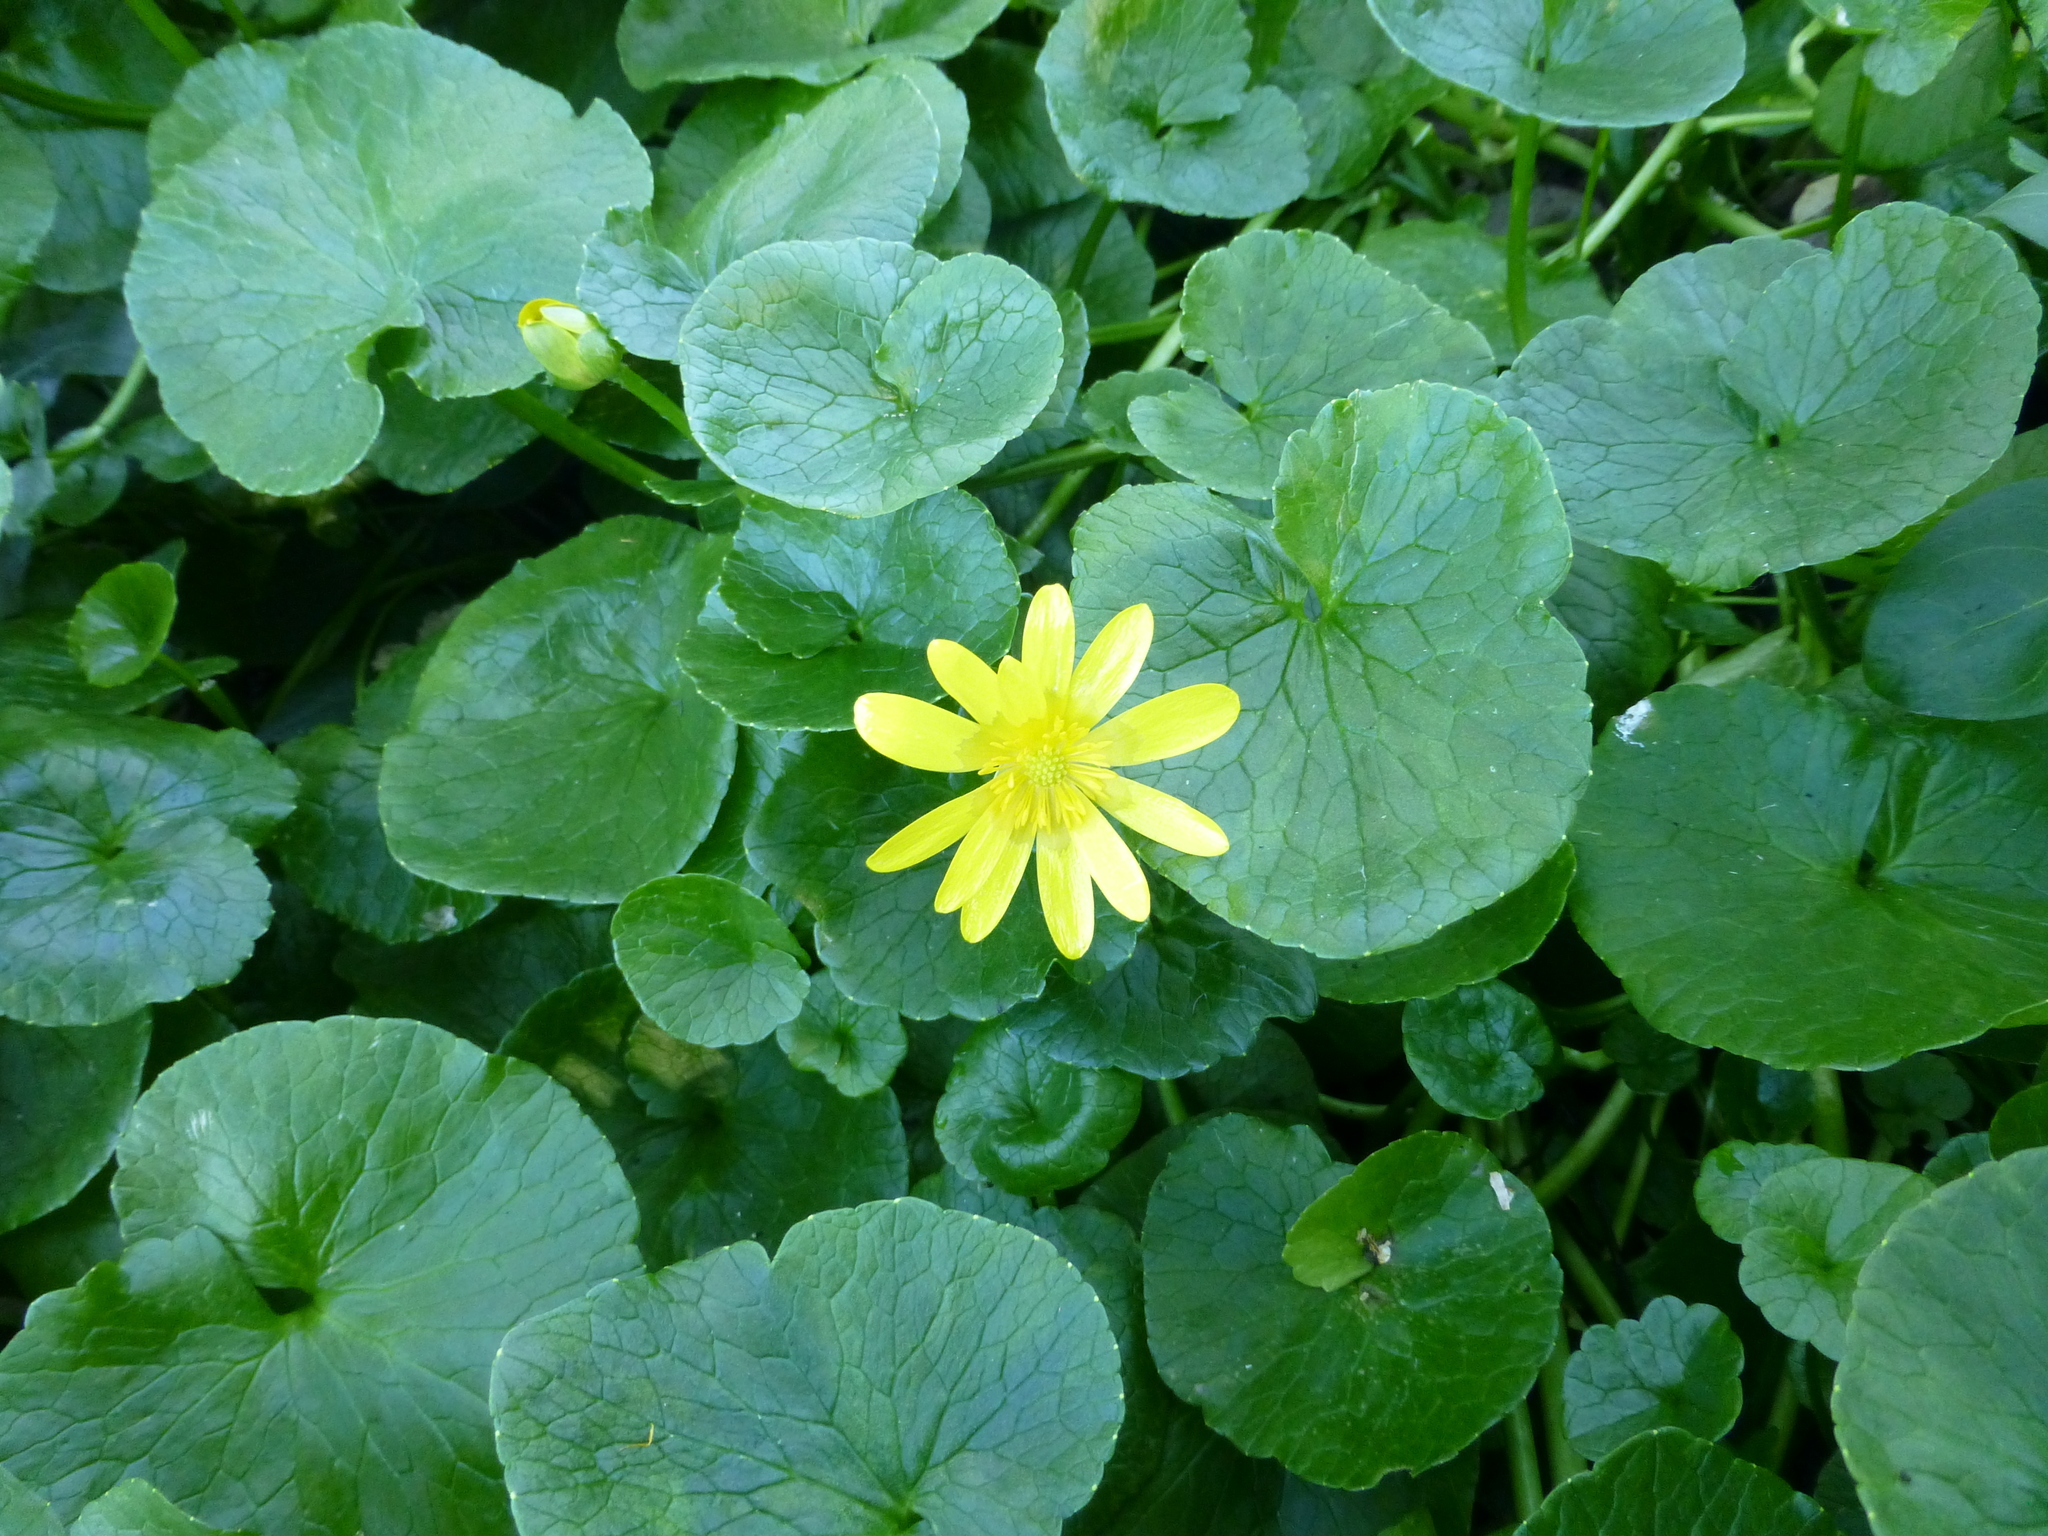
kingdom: Plantae
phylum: Tracheophyta
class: Magnoliopsida
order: Ranunculales
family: Ranunculaceae
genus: Ficaria
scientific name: Ficaria grandiflora
